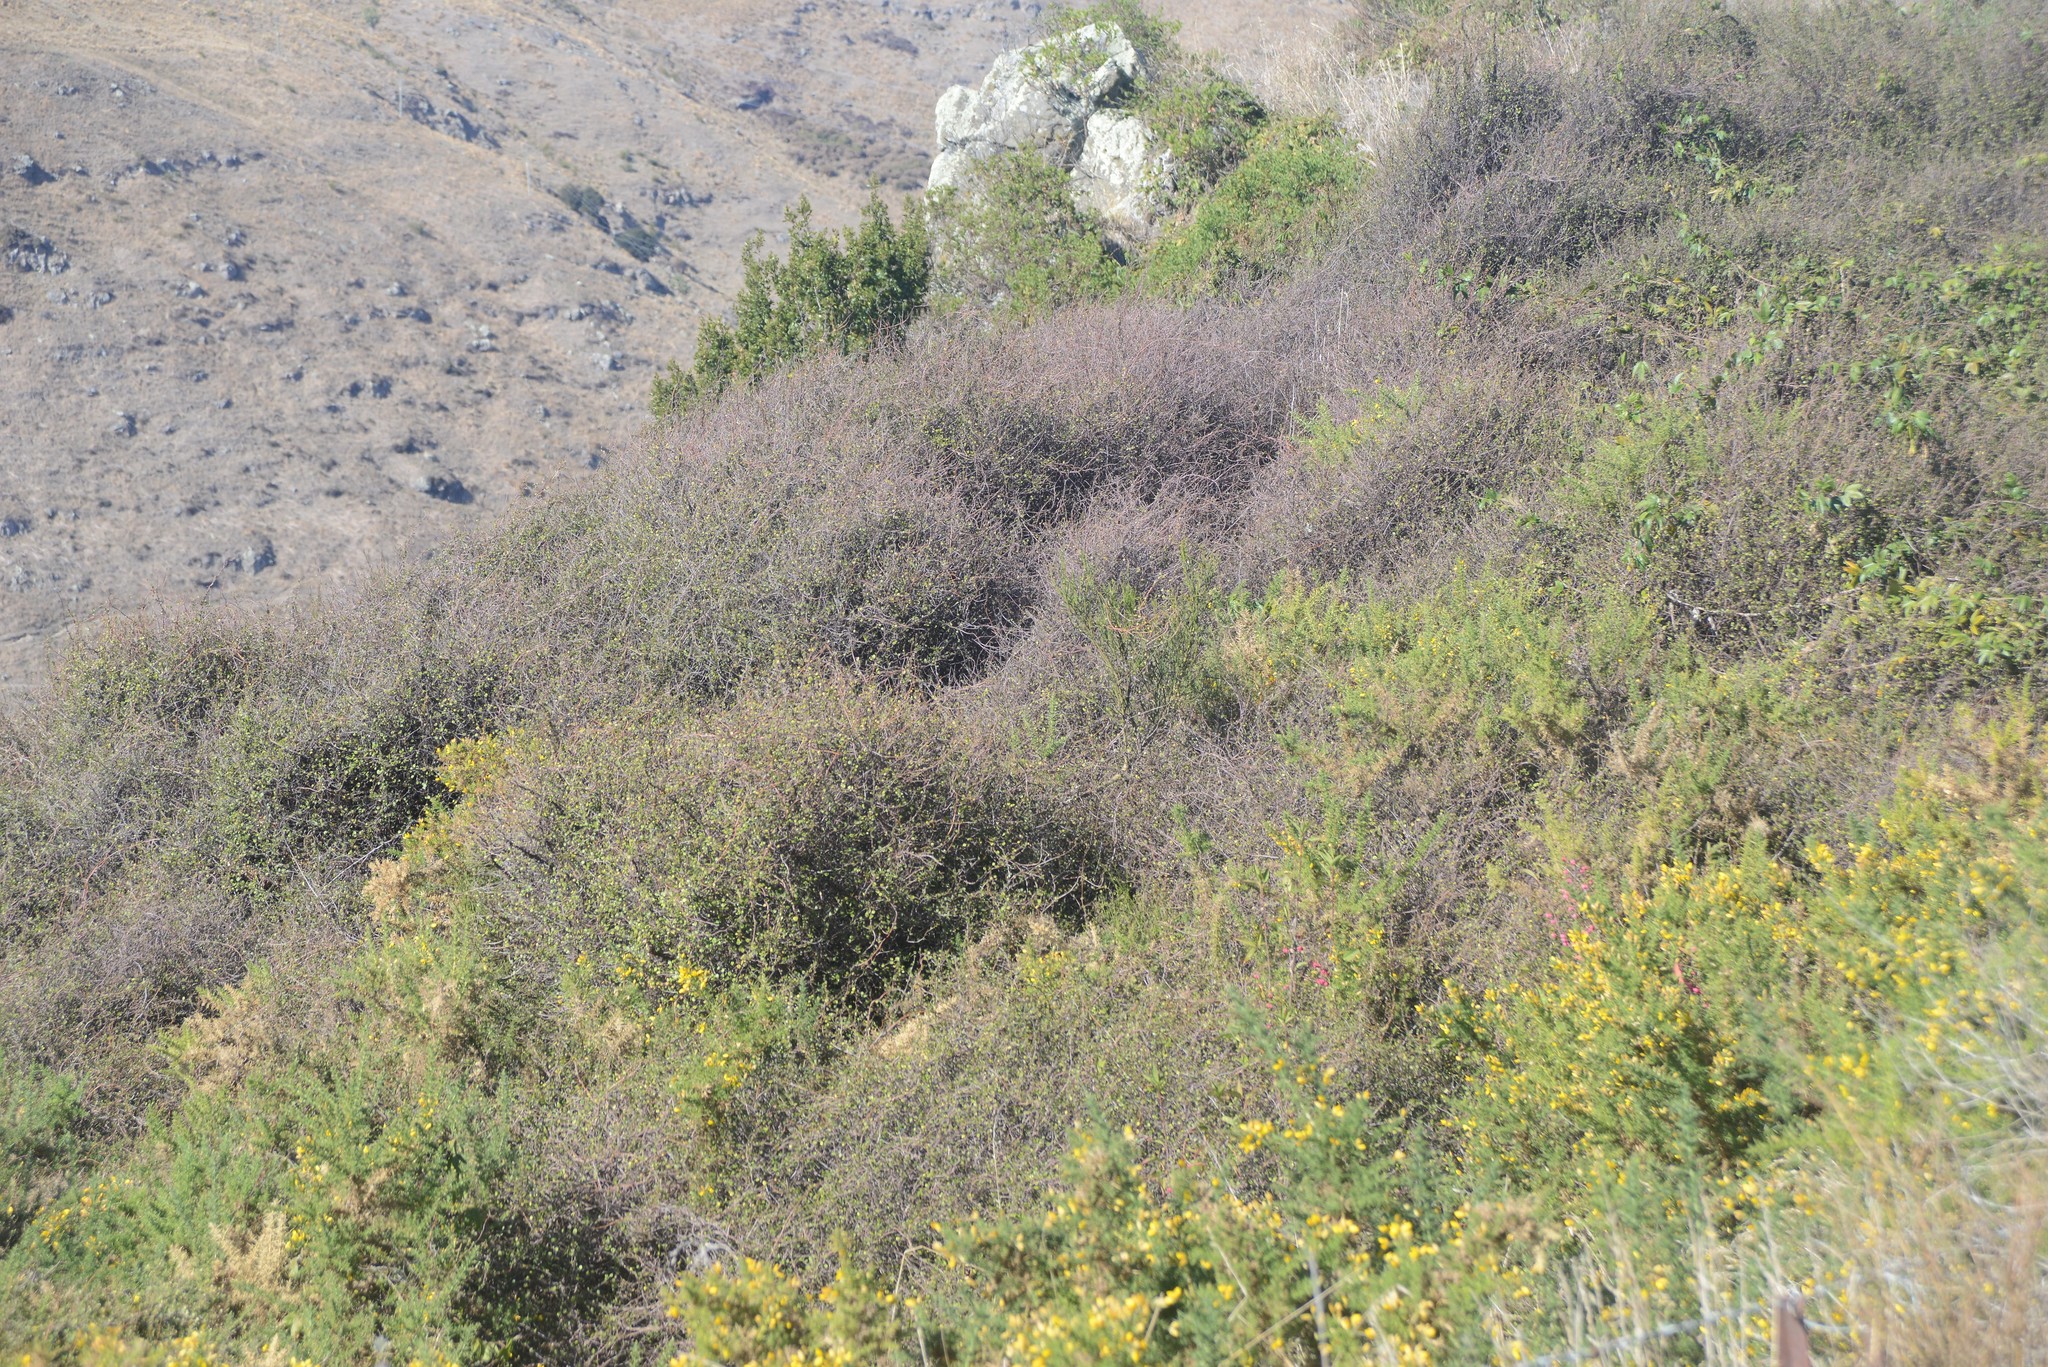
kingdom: Plantae
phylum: Tracheophyta
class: Magnoliopsida
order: Caryophyllales
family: Polygonaceae
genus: Muehlenbeckia
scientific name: Muehlenbeckia complexa
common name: Wireplant
